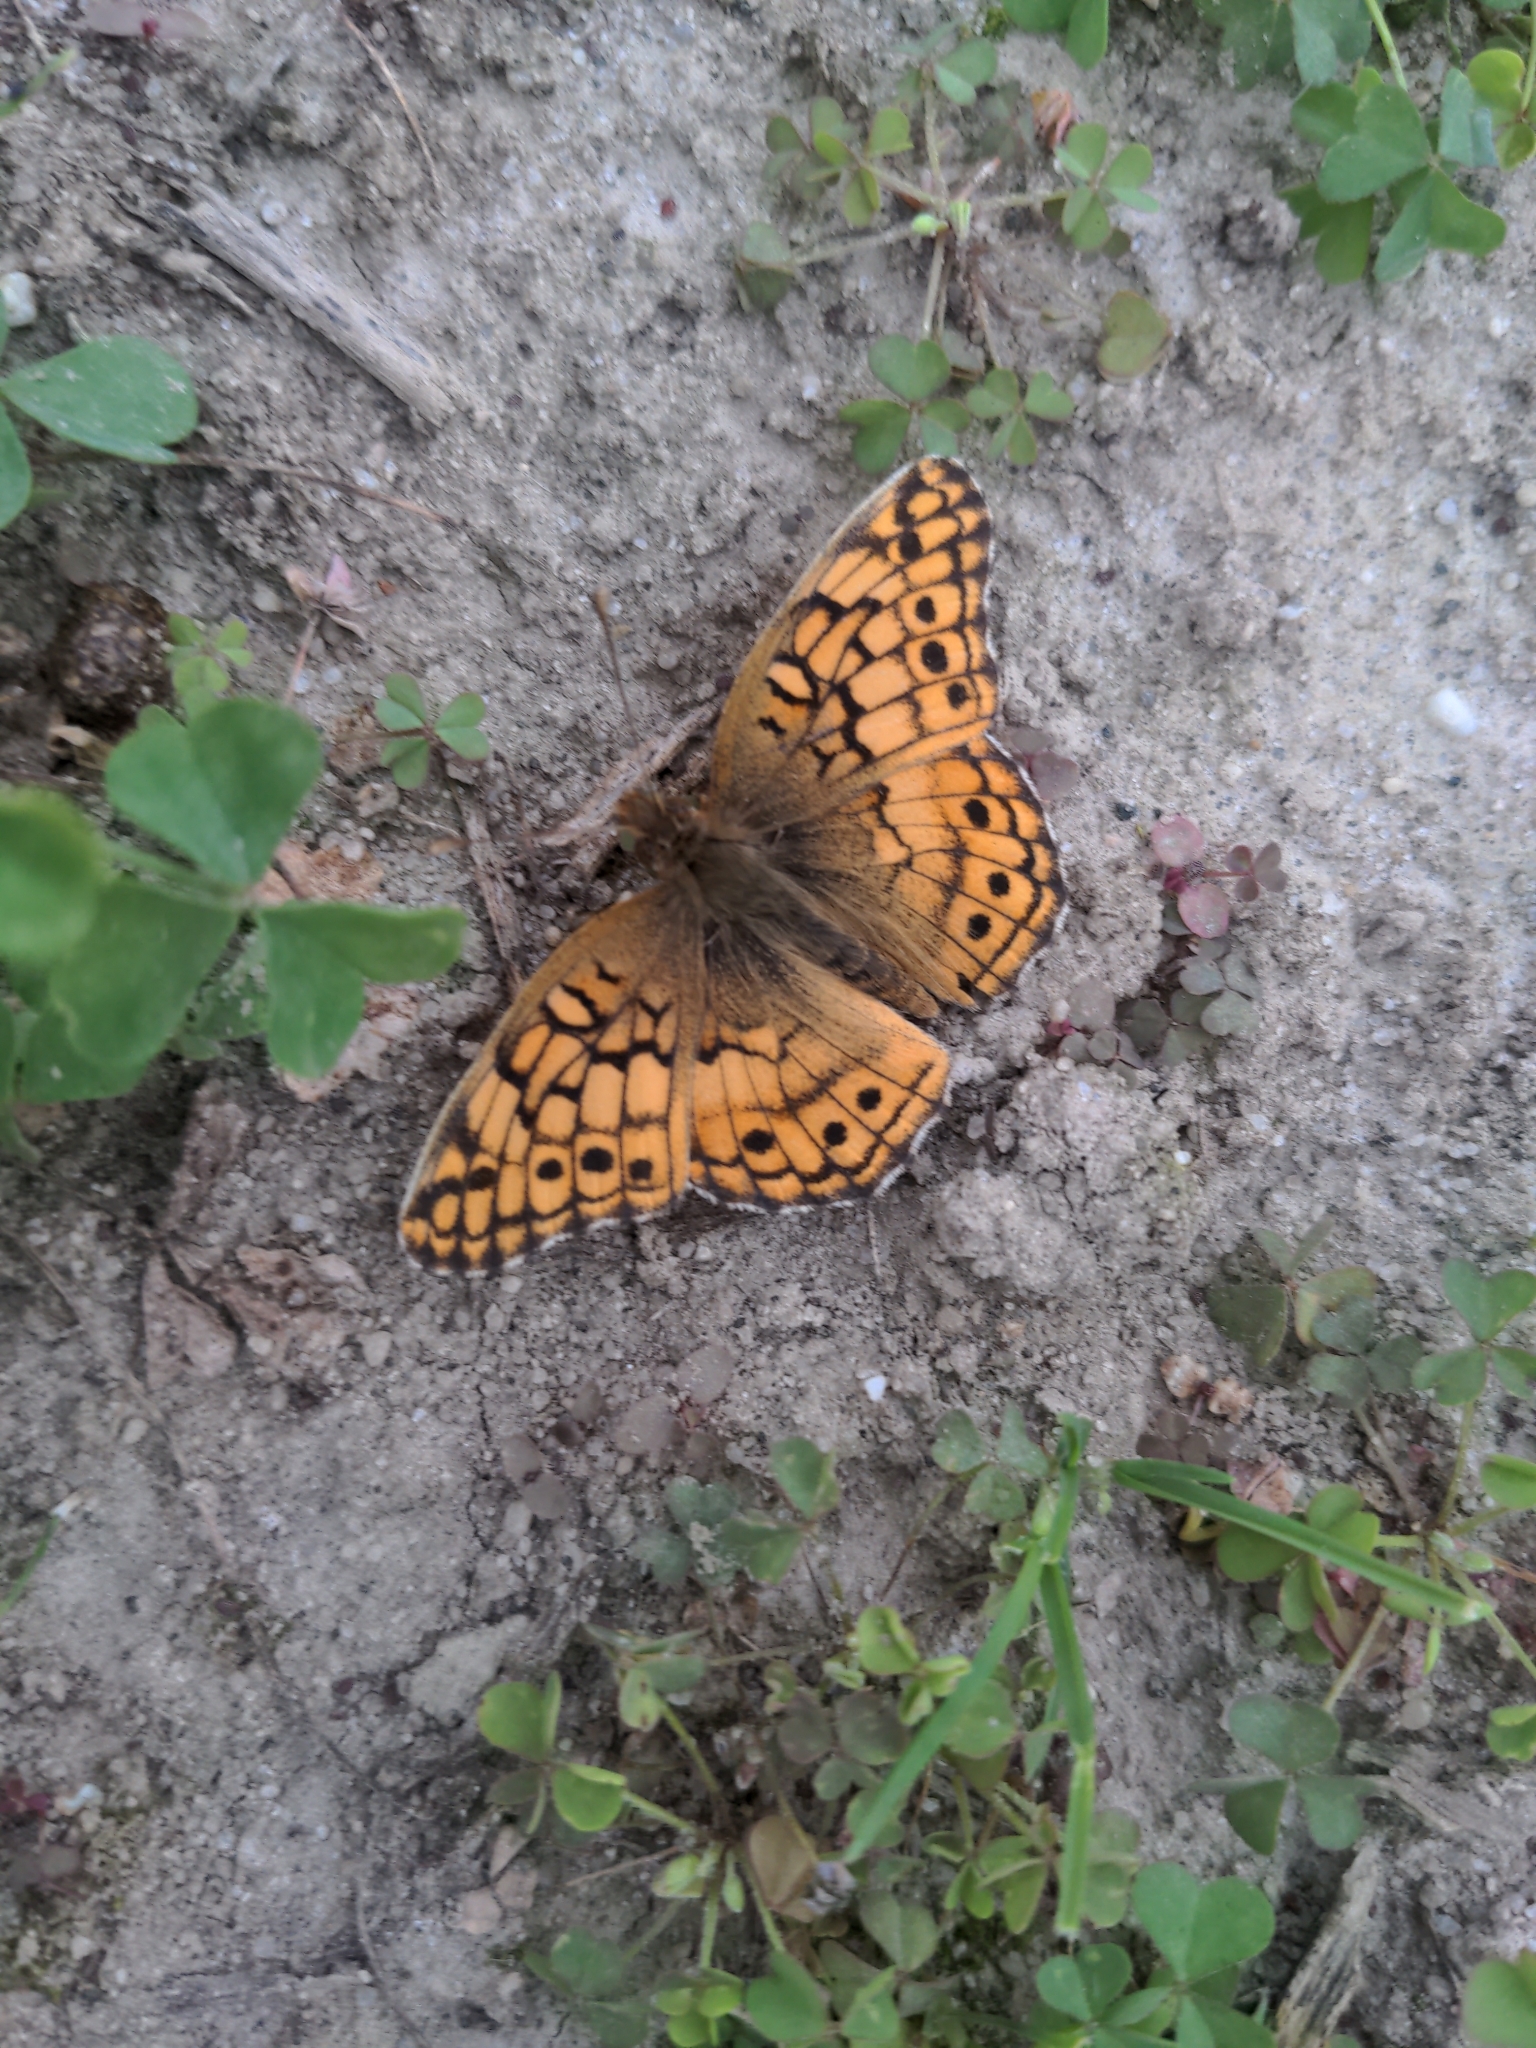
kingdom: Animalia
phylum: Arthropoda
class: Insecta
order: Lepidoptera
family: Nymphalidae
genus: Euptoieta
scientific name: Euptoieta claudia
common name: Variegated fritillary
